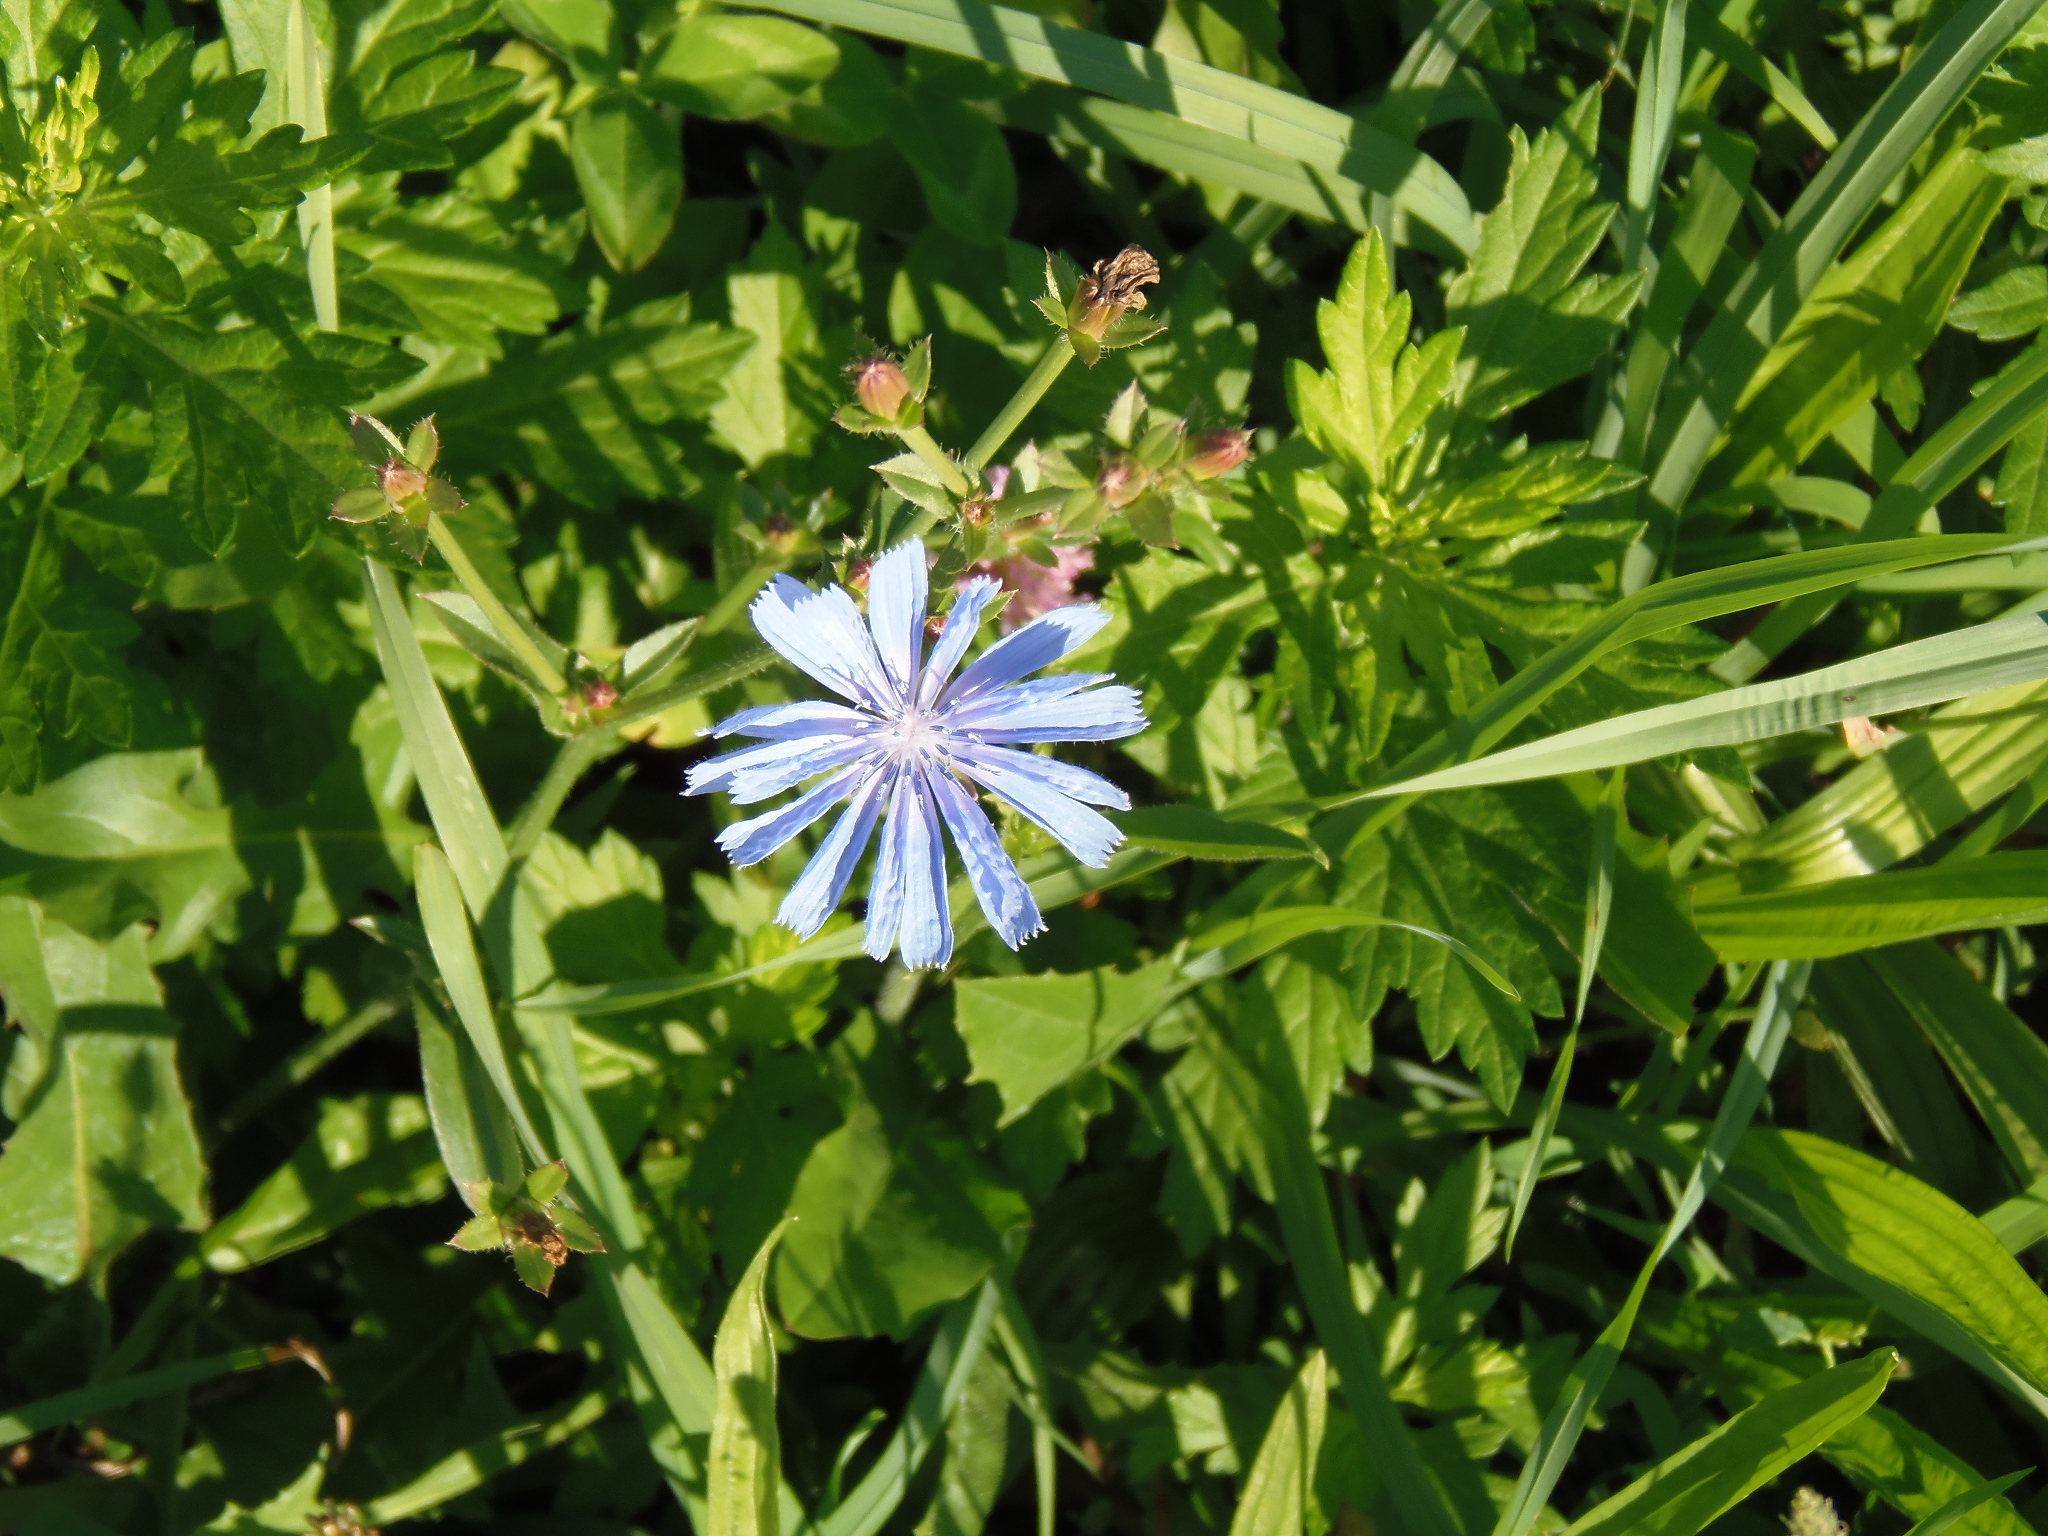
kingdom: Plantae
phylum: Tracheophyta
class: Magnoliopsida
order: Asterales
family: Asteraceae
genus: Cichorium
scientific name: Cichorium intybus
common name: Chicory
